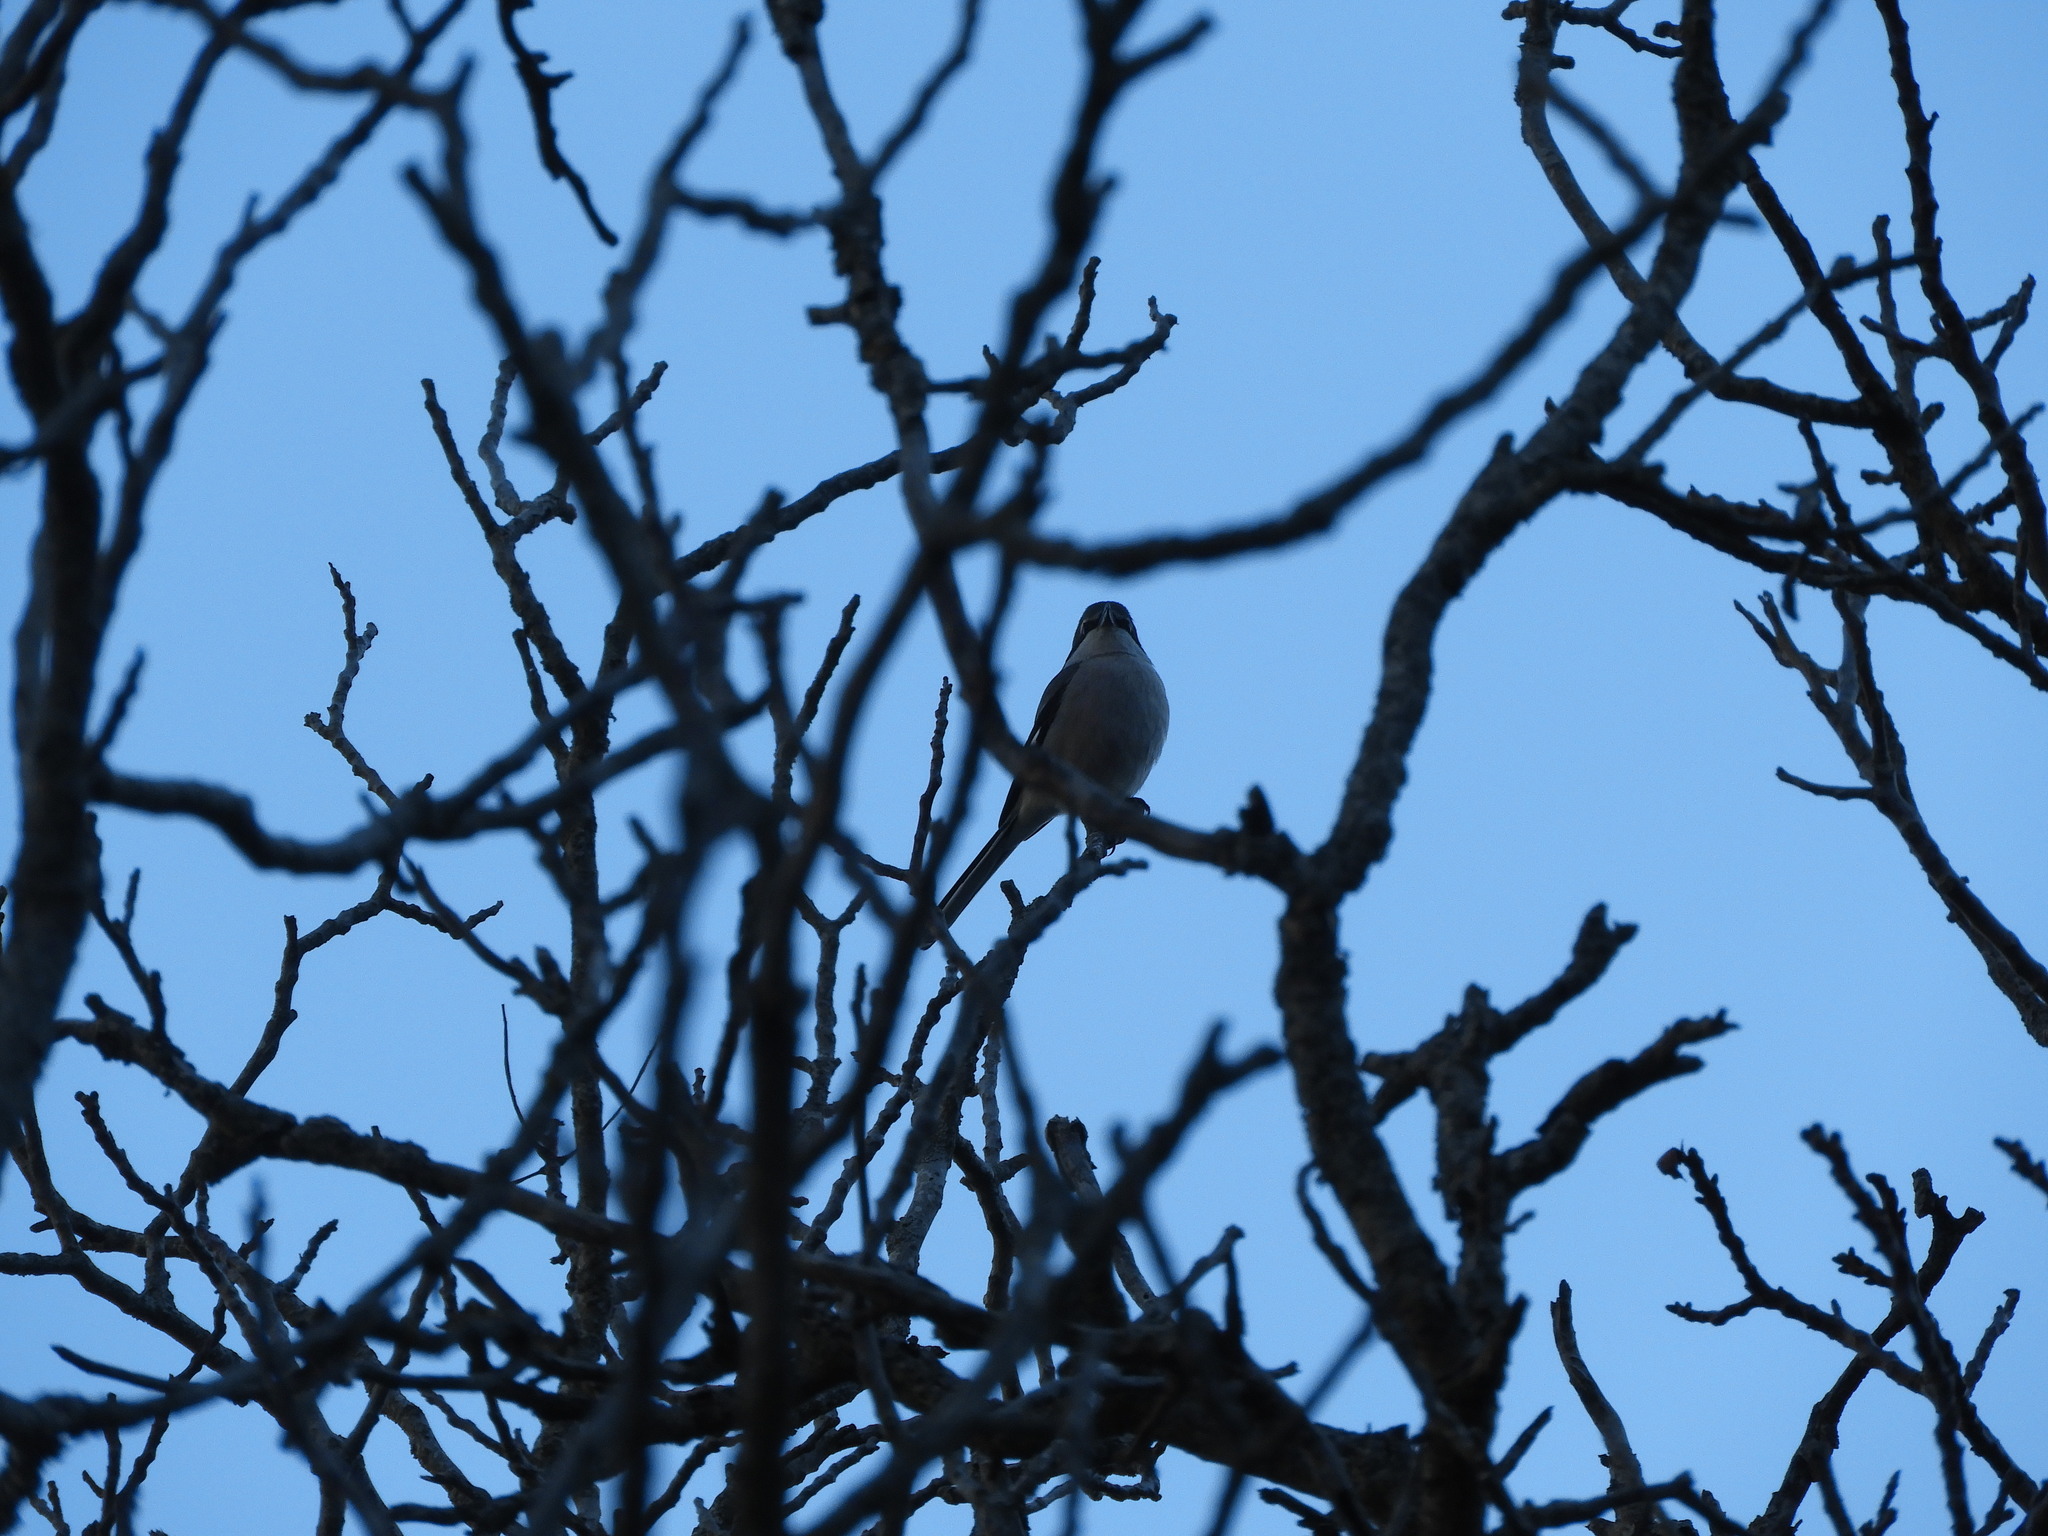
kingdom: Animalia
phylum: Chordata
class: Aves
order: Passeriformes
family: Laniidae
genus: Lanius
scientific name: Lanius meridionalis
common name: Iberian grey shrike
